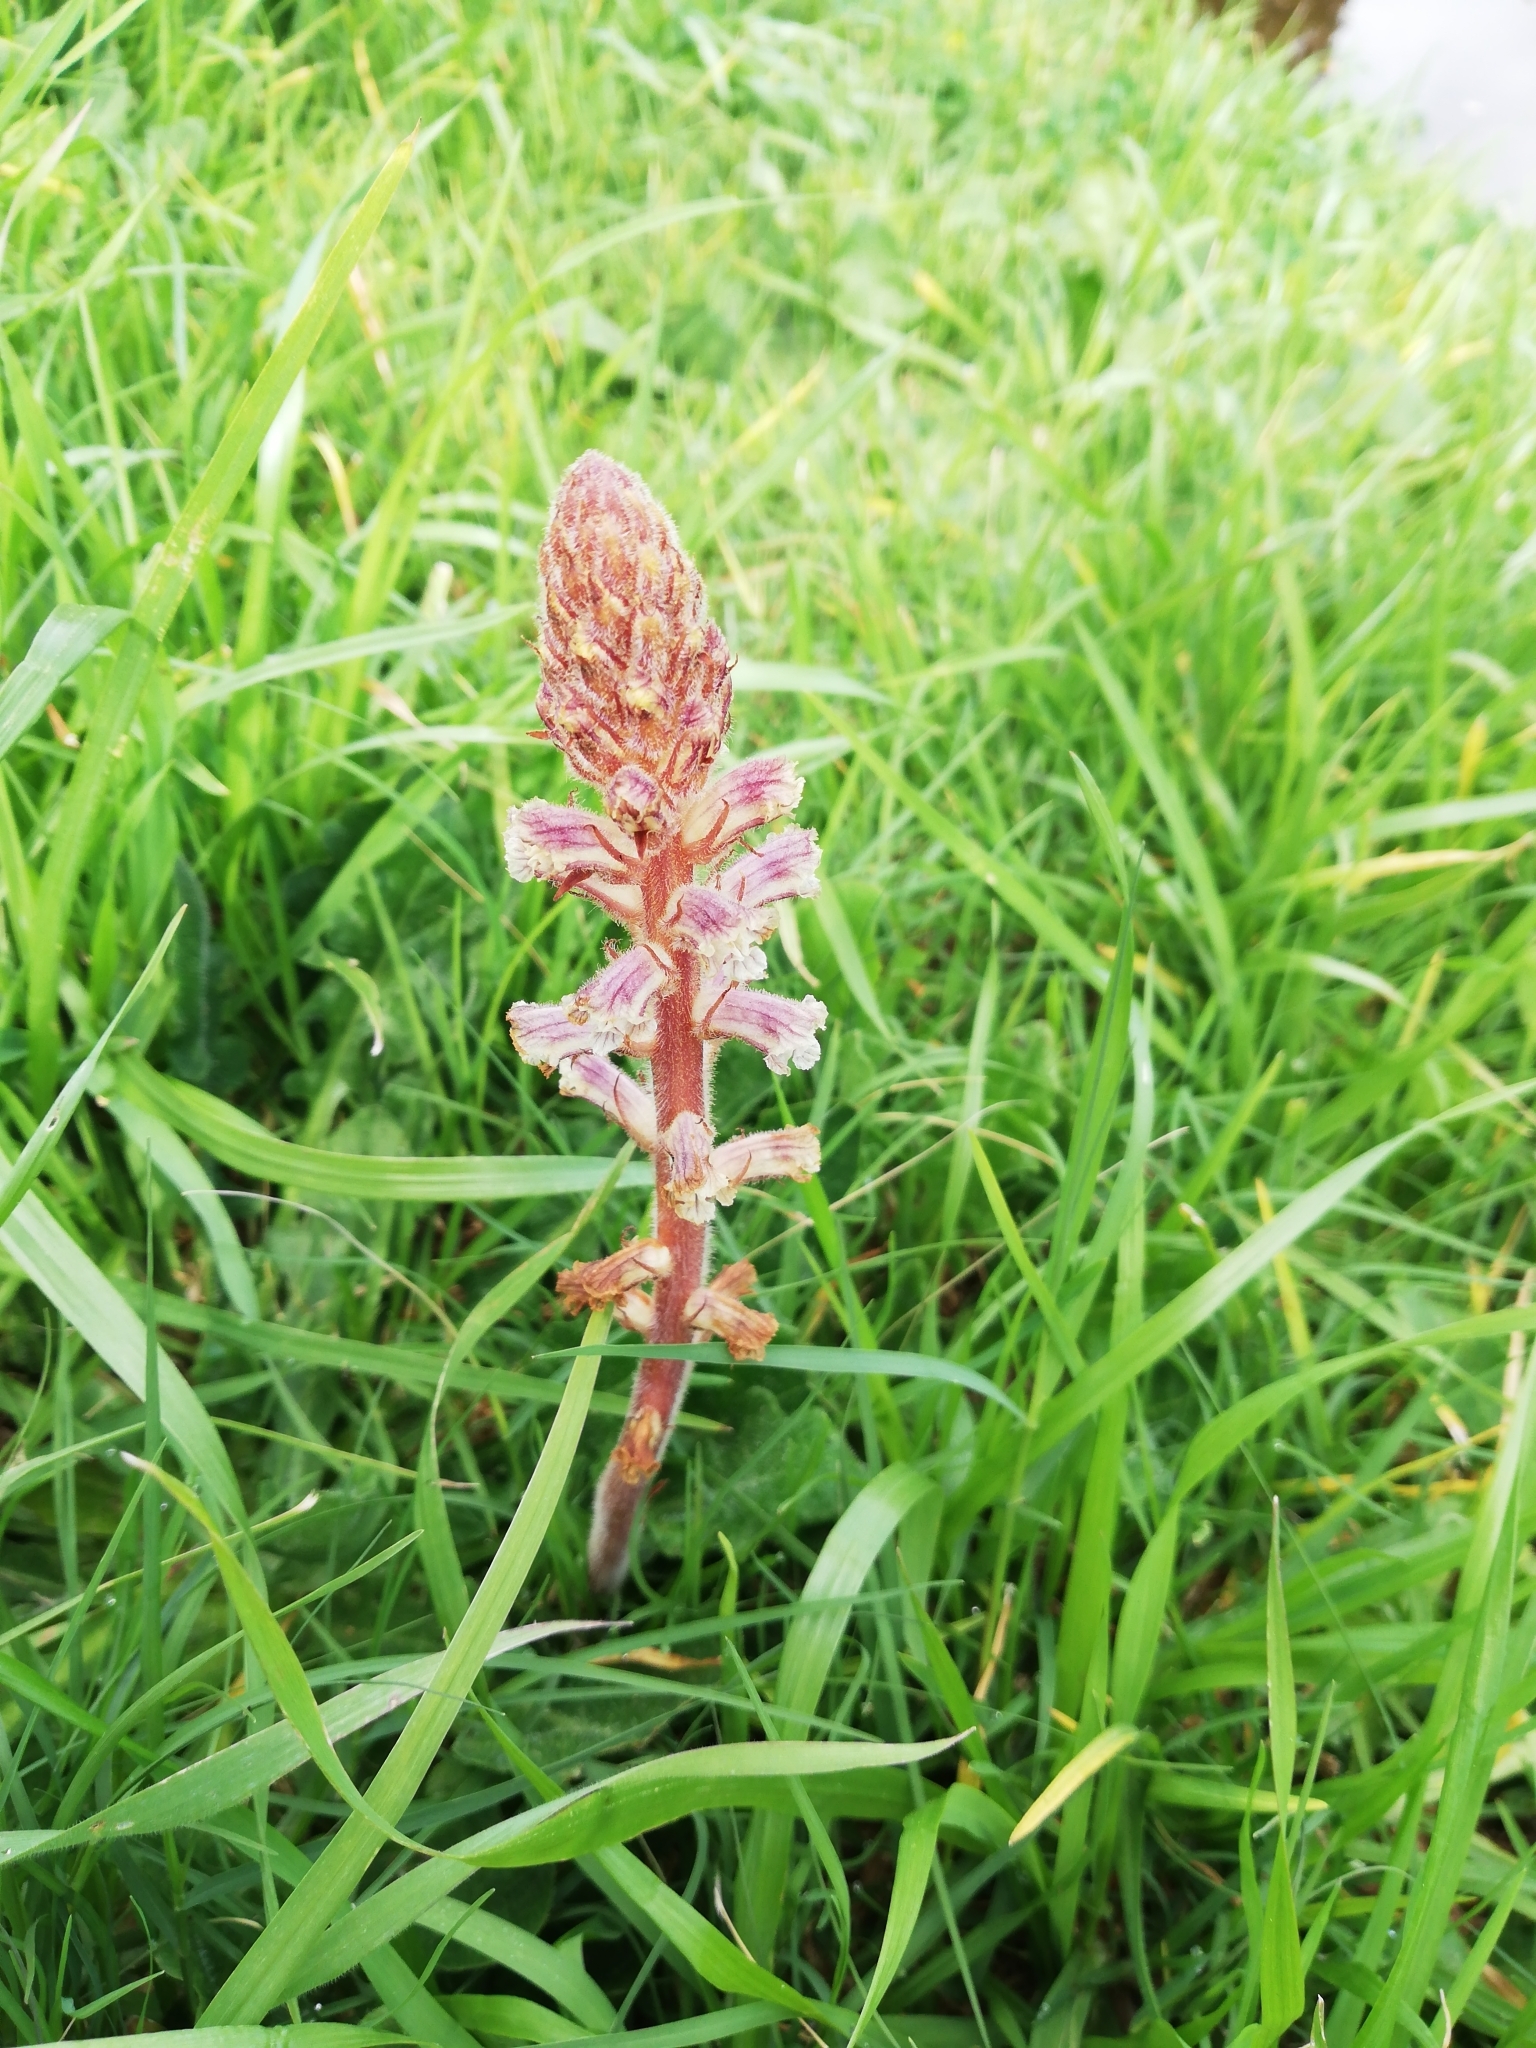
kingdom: Plantae
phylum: Tracheophyta
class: Magnoliopsida
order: Lamiales
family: Orobanchaceae
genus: Orobanche
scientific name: Orobanche minor
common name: Common broomrape
